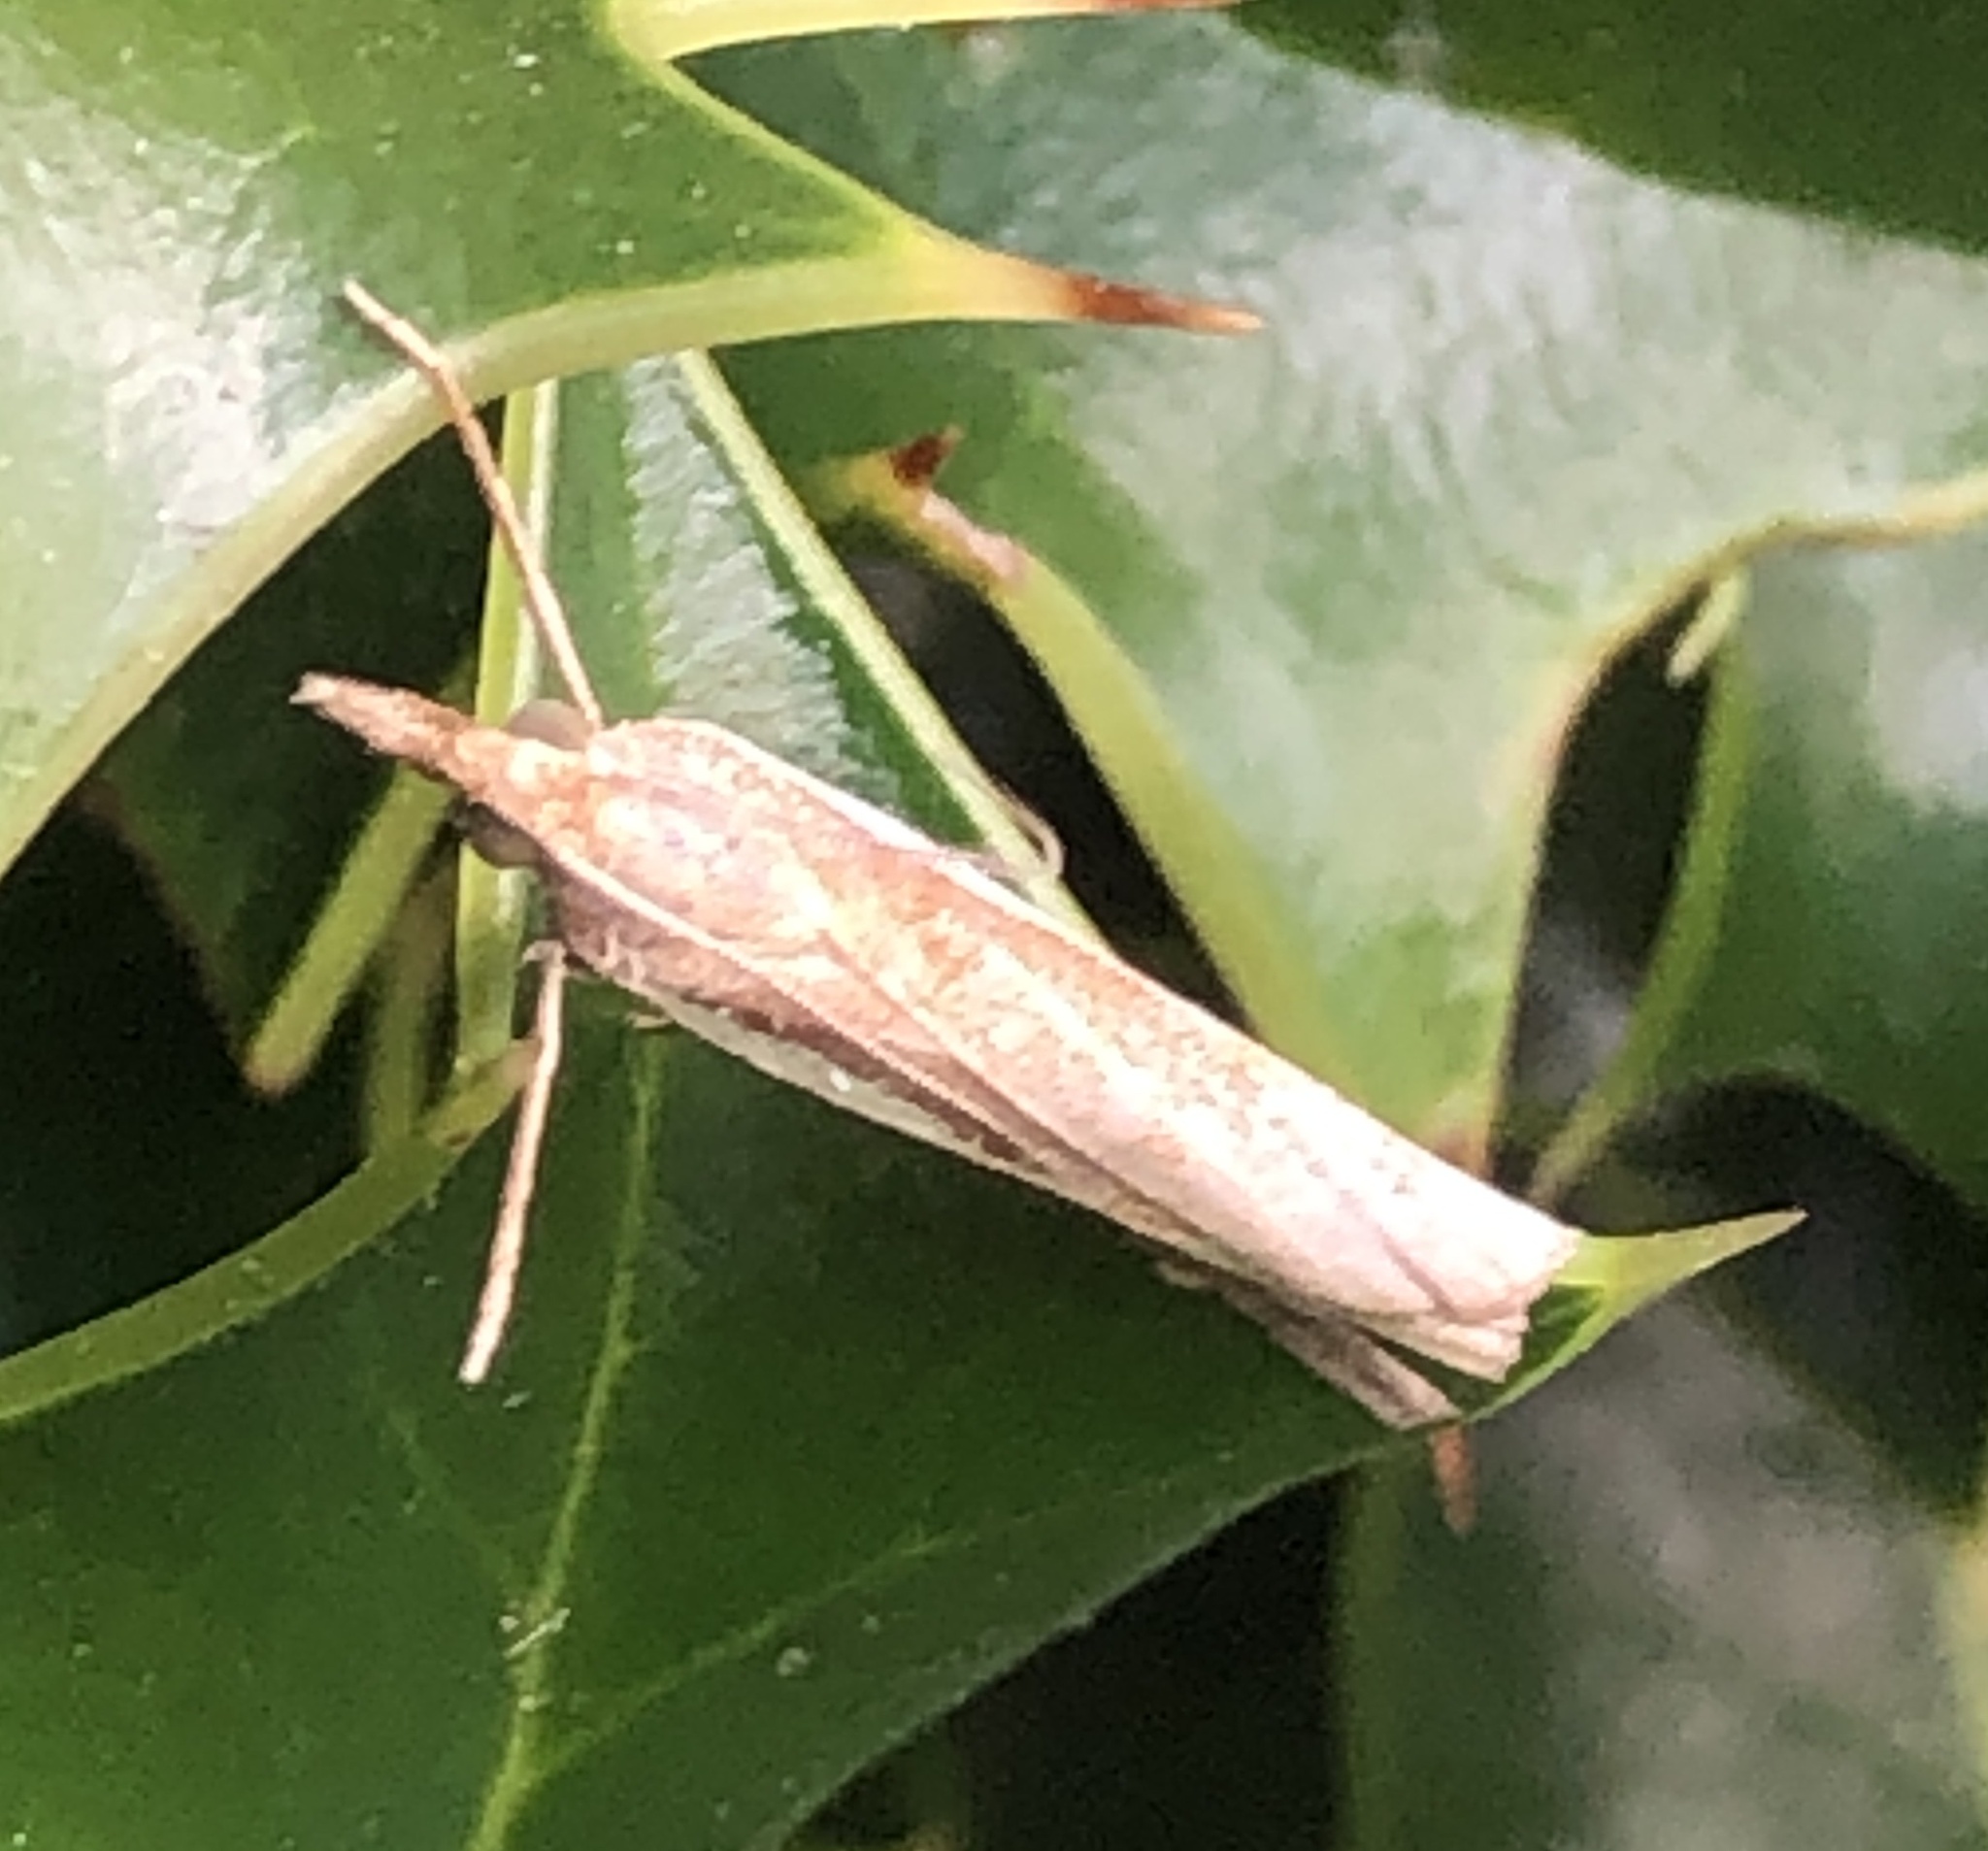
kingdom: Animalia
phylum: Arthropoda
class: Insecta
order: Lepidoptera
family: Crambidae
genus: Agriphila
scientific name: Agriphila tristellus
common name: Common grass-veneer
